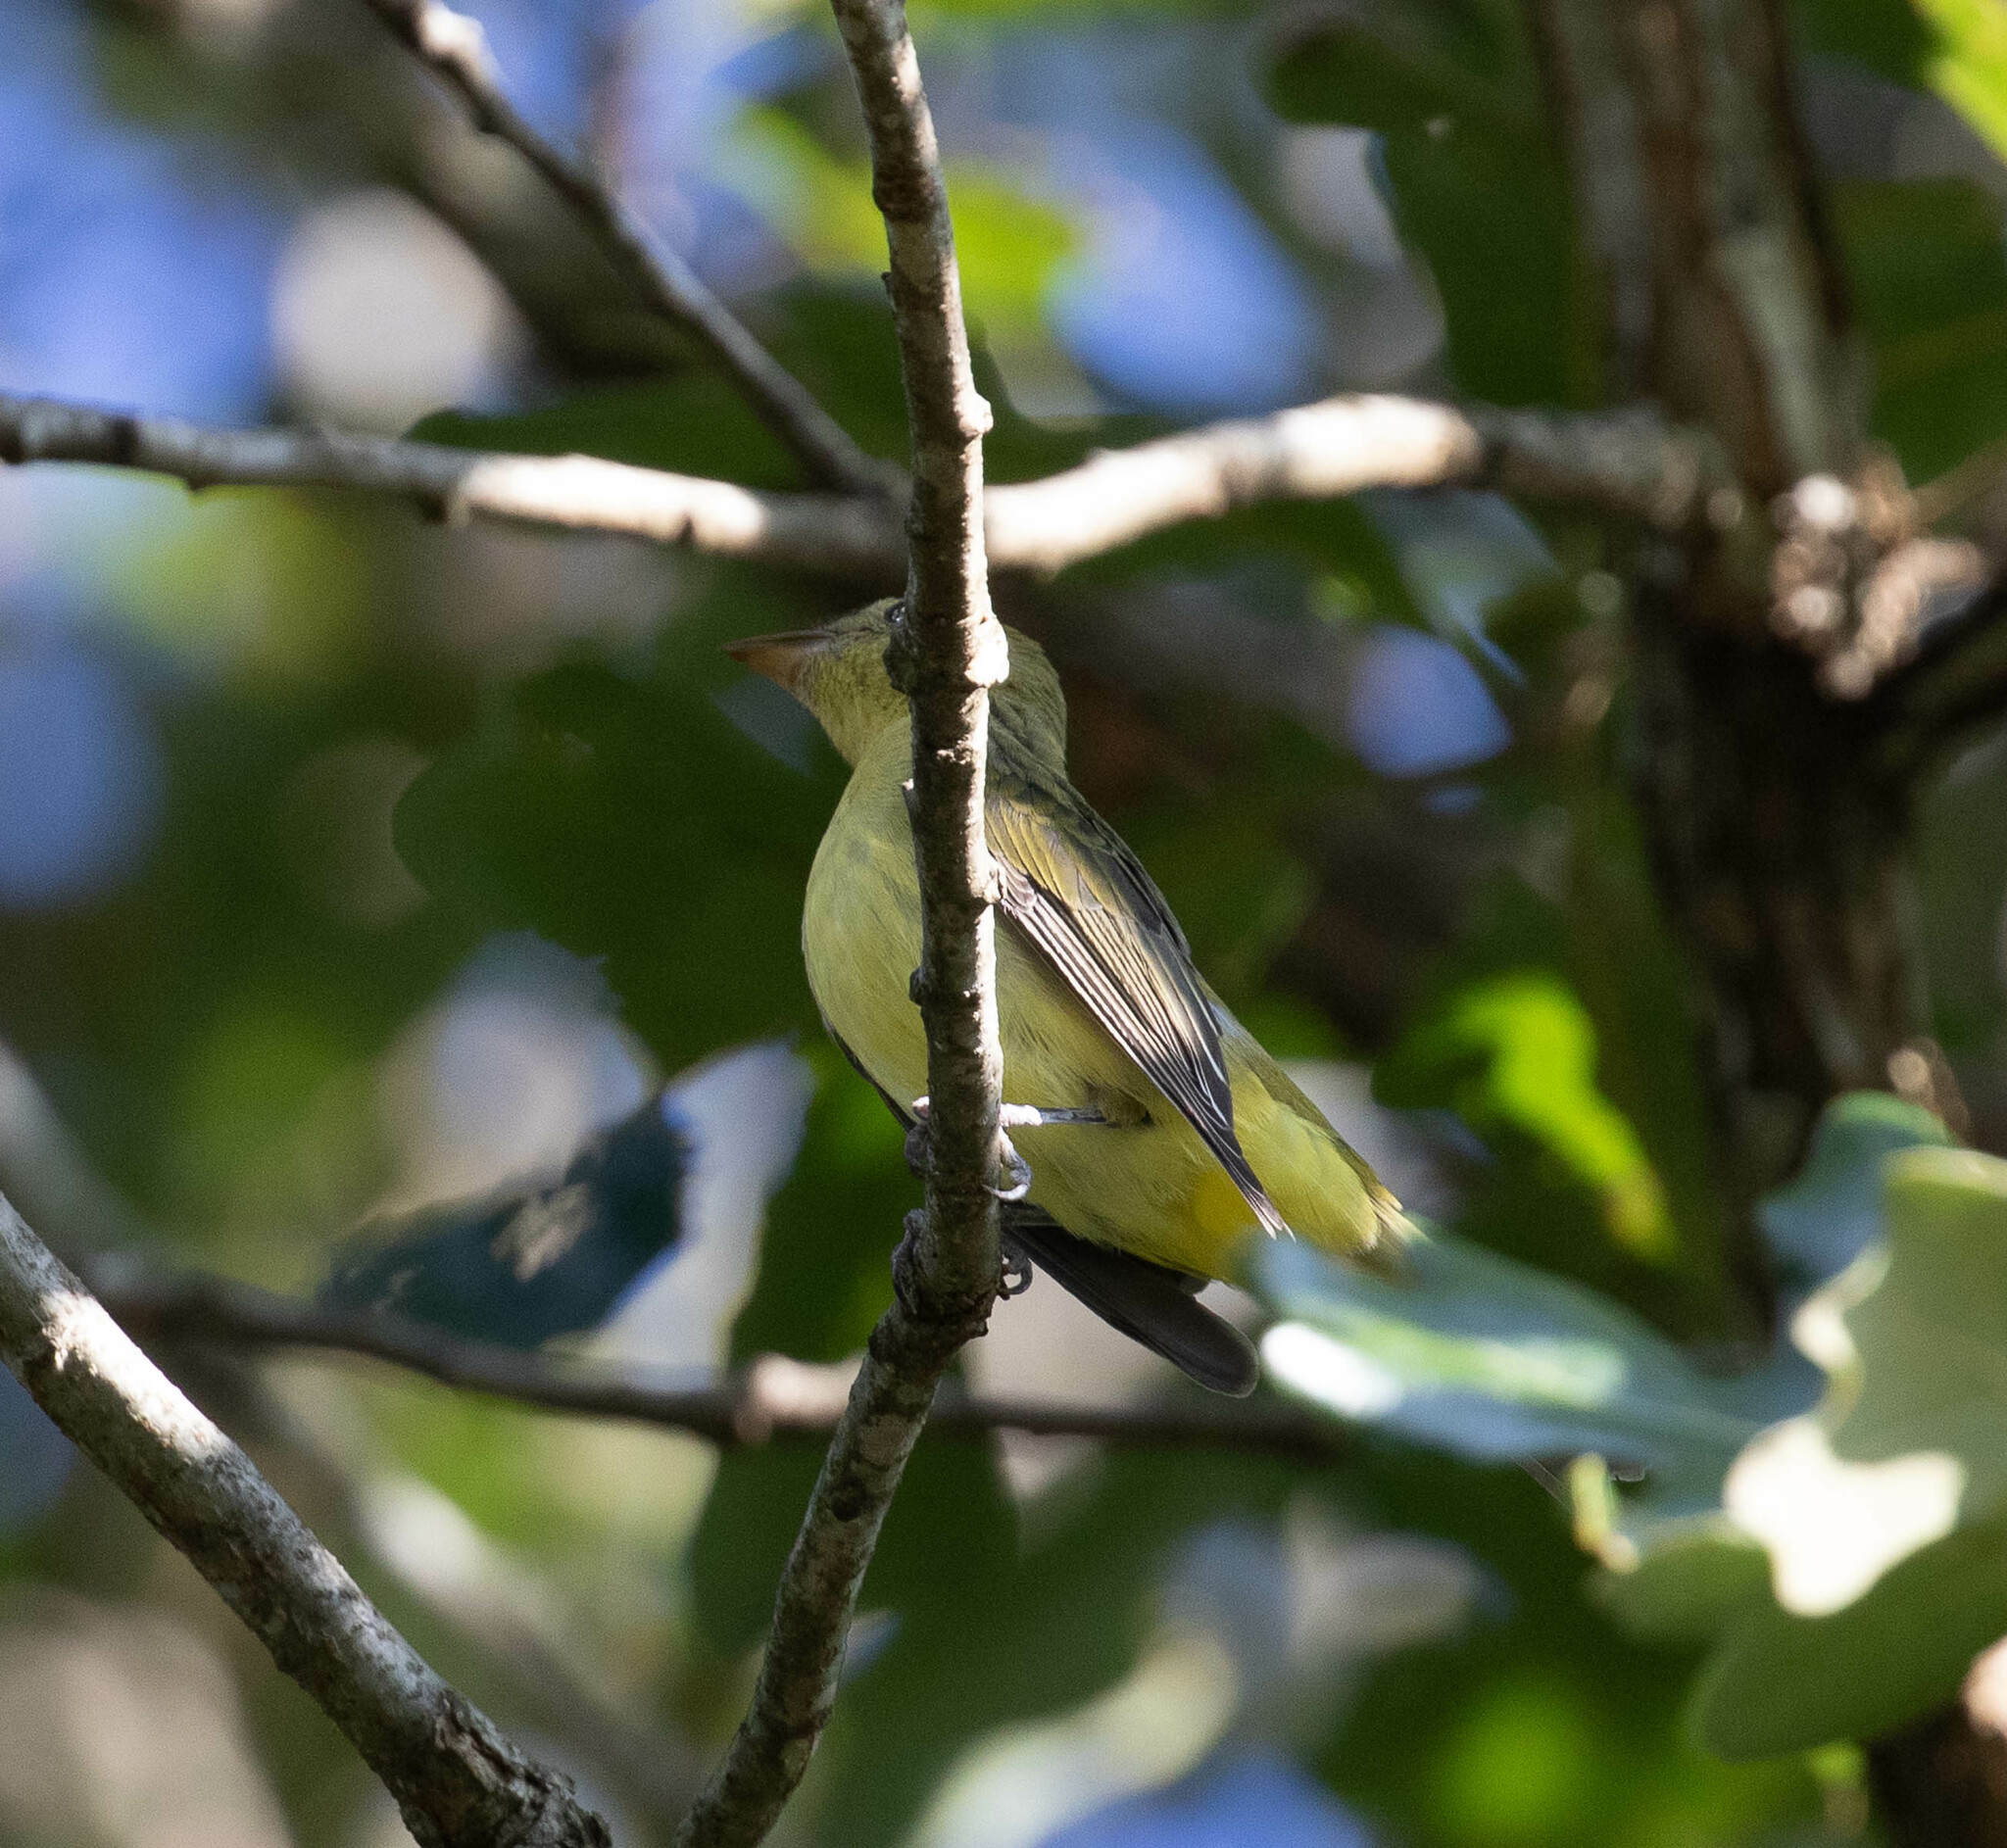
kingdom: Animalia
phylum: Chordata
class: Aves
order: Passeriformes
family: Cardinalidae
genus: Piranga
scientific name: Piranga olivacea
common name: Scarlet tanager
